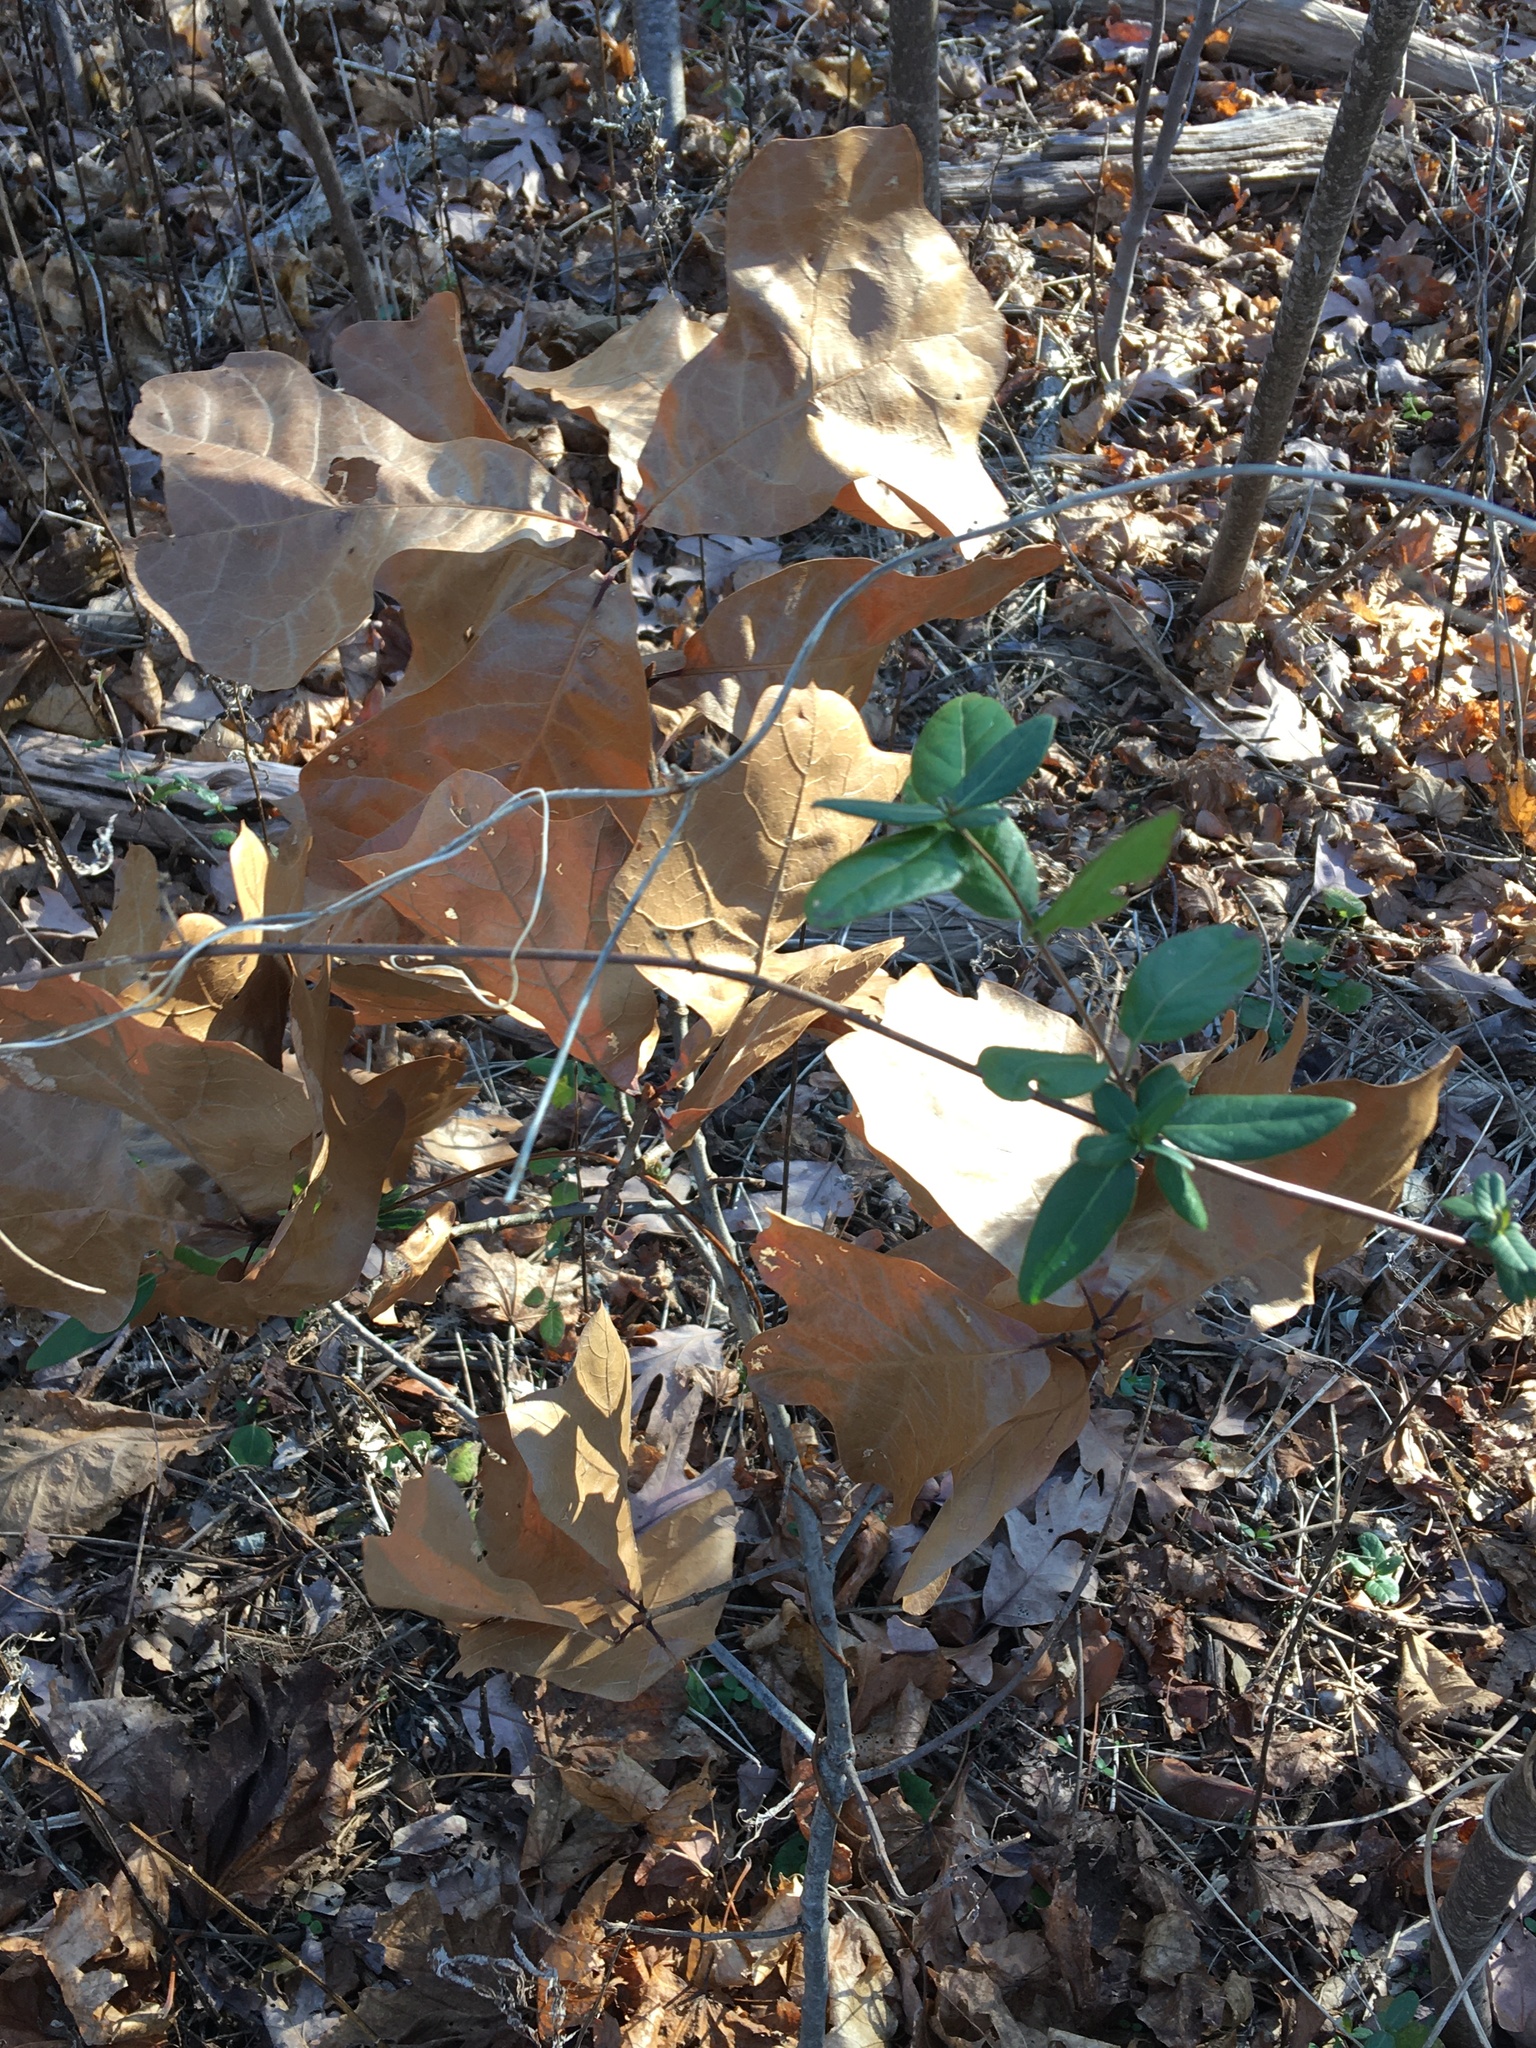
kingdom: Plantae
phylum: Tracheophyta
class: Magnoliopsida
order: Fagales
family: Fagaceae
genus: Quercus
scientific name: Quercus marilandica
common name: Blackjack oak
